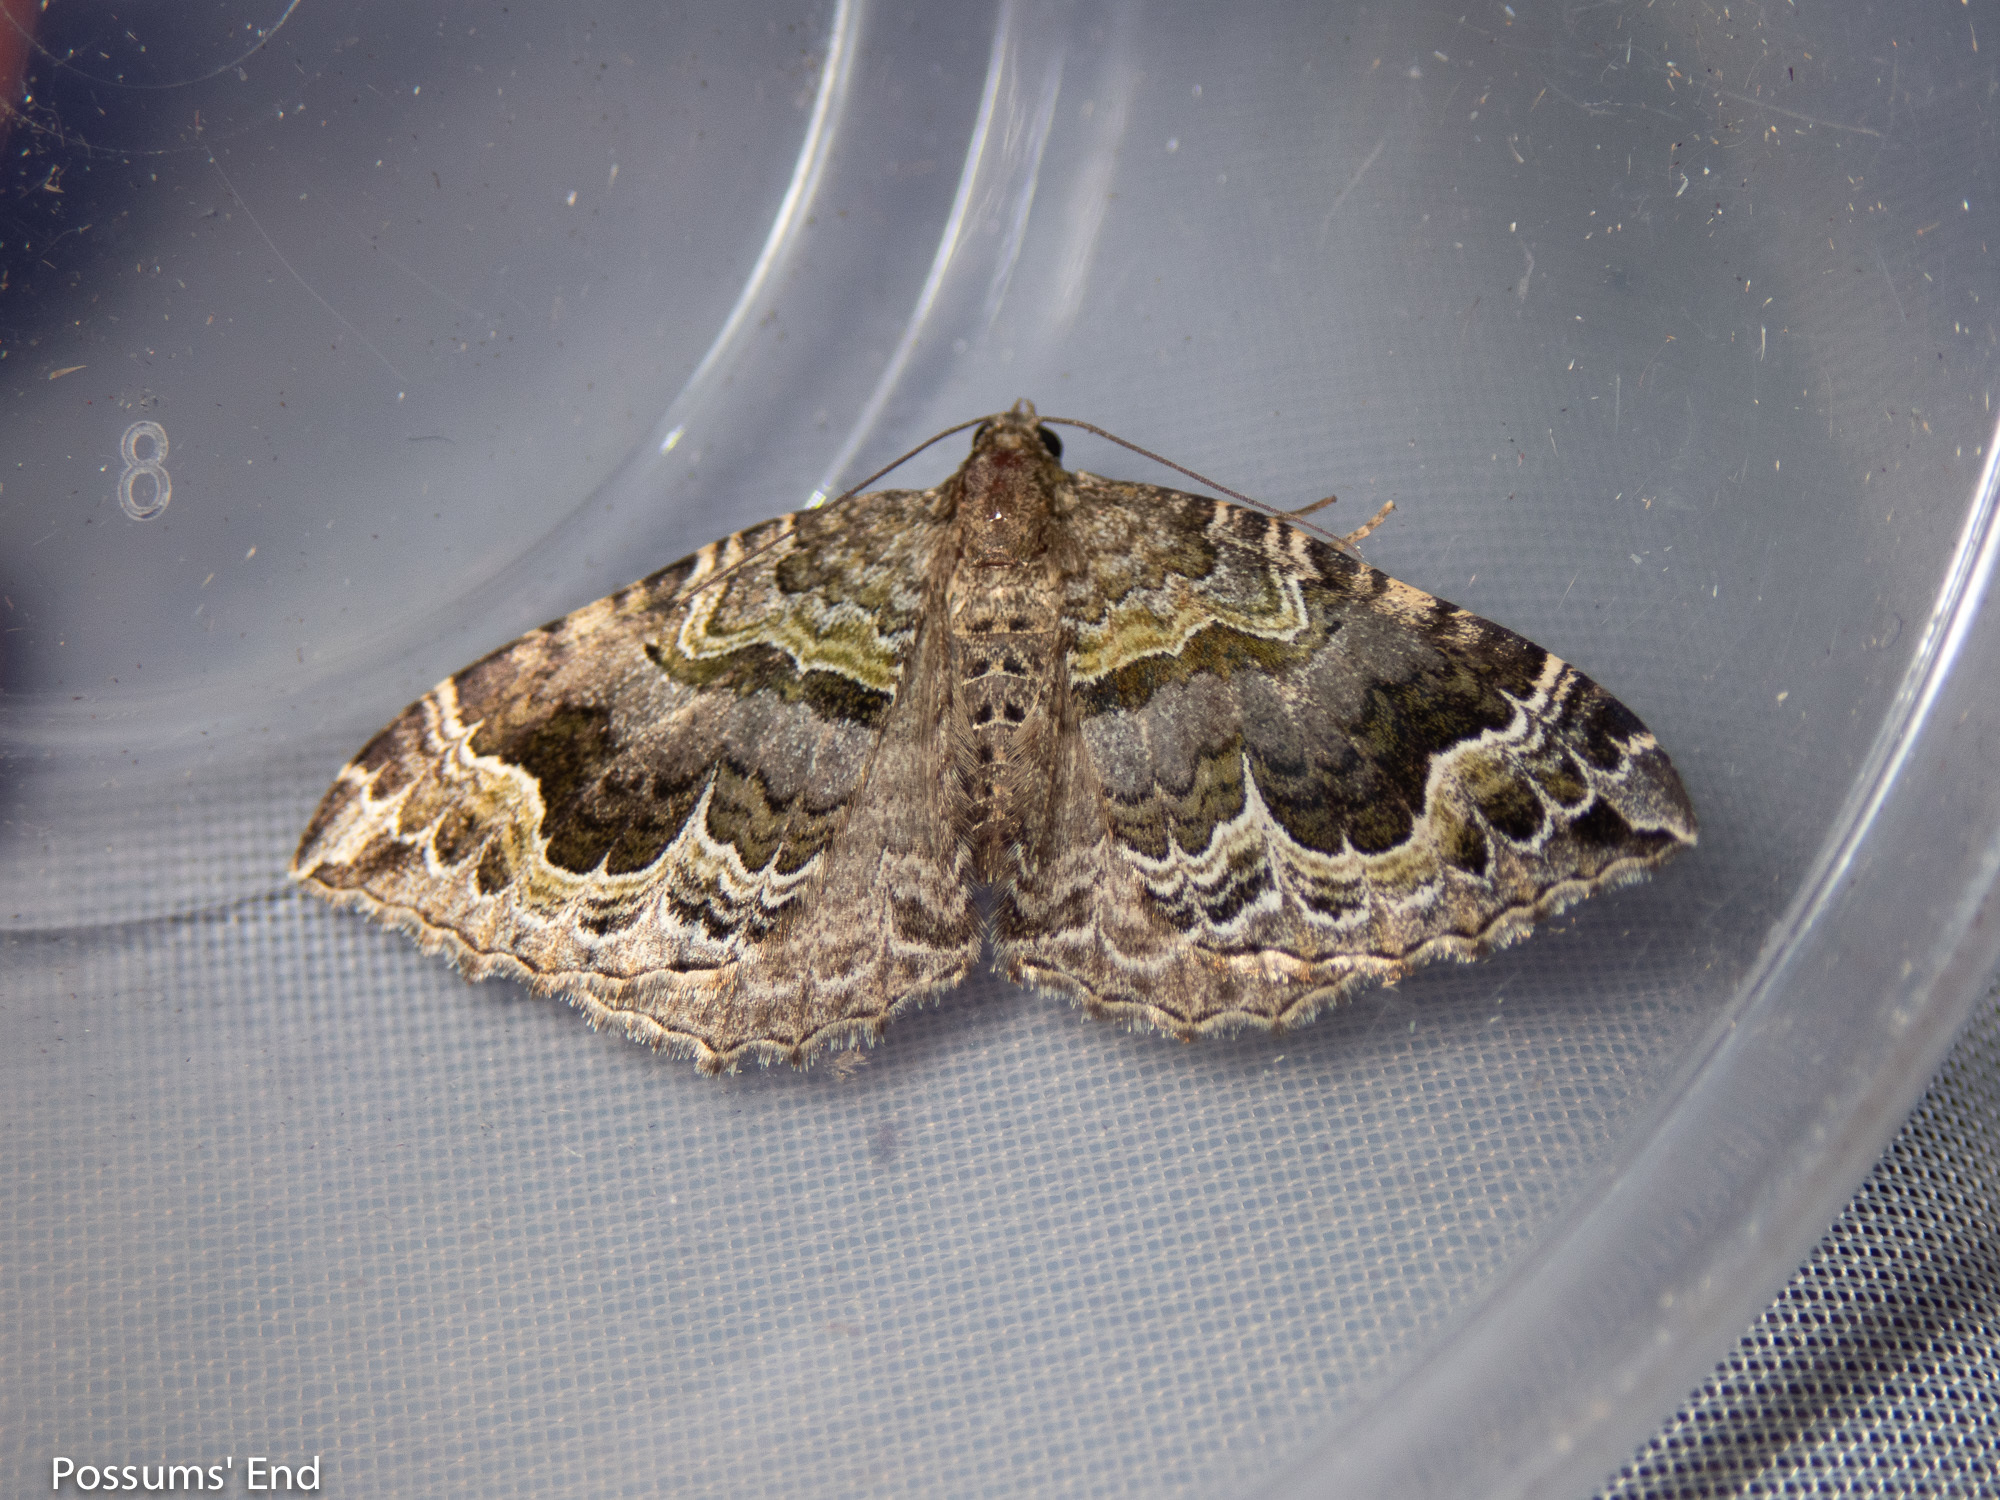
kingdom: Animalia
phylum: Arthropoda
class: Insecta
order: Lepidoptera
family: Geometridae
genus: Hydriomena
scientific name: Hydriomena rixata
